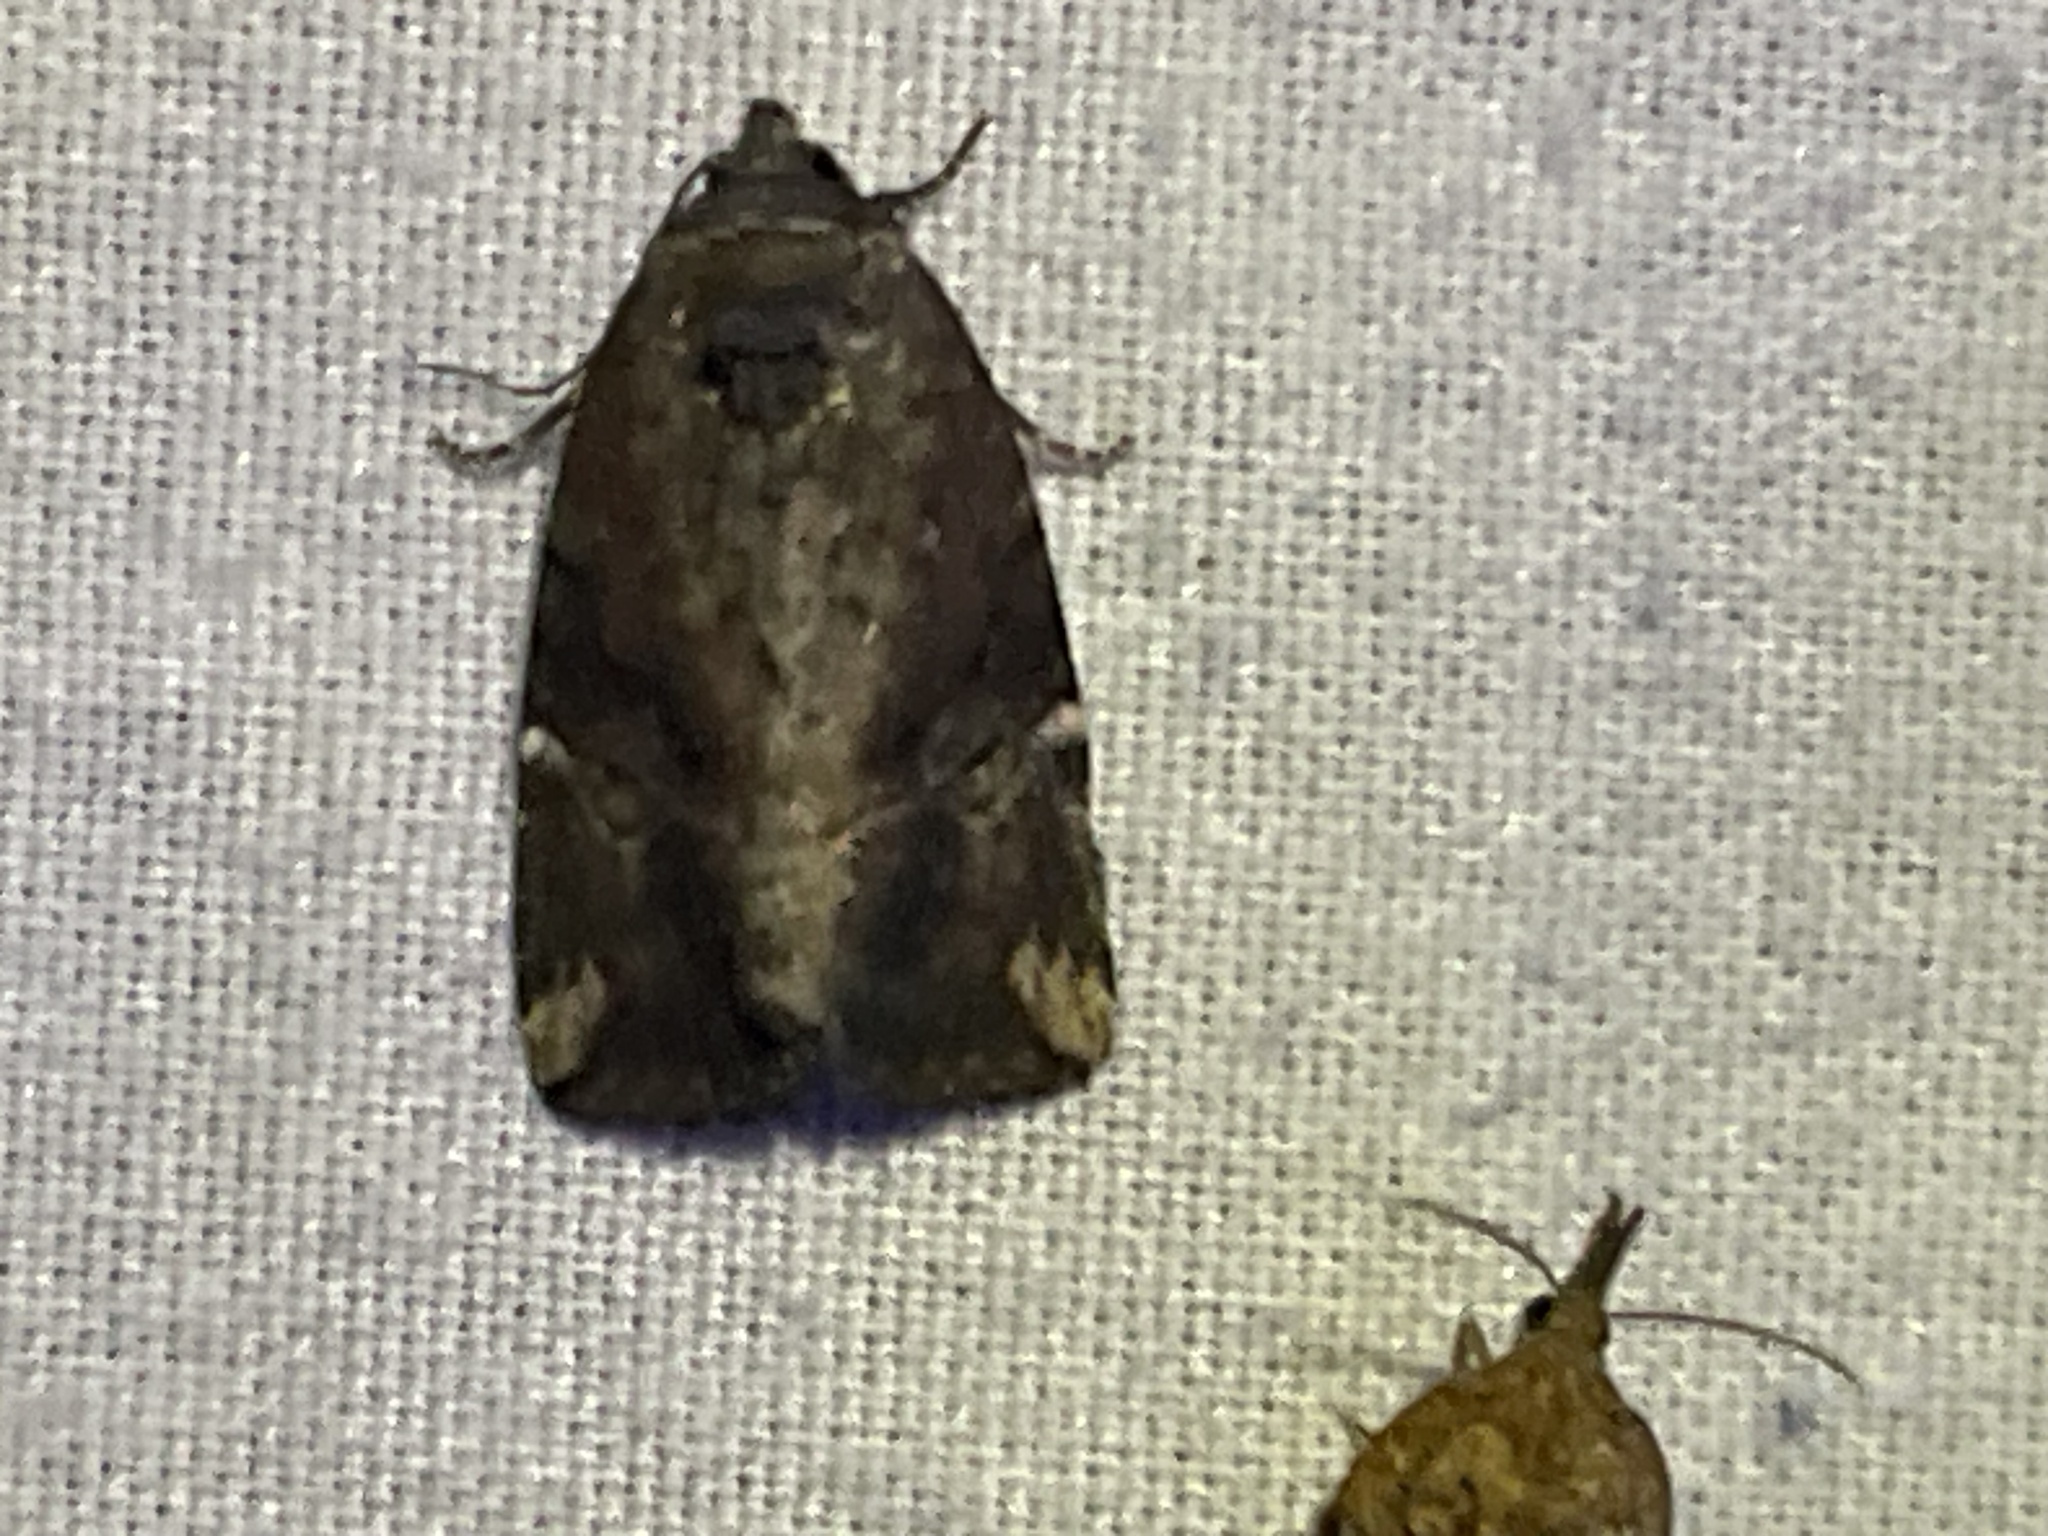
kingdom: Animalia
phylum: Arthropoda
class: Insecta
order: Lepidoptera
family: Noctuidae
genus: Elaphria
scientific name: Elaphria versicolor
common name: Fir harlequin
